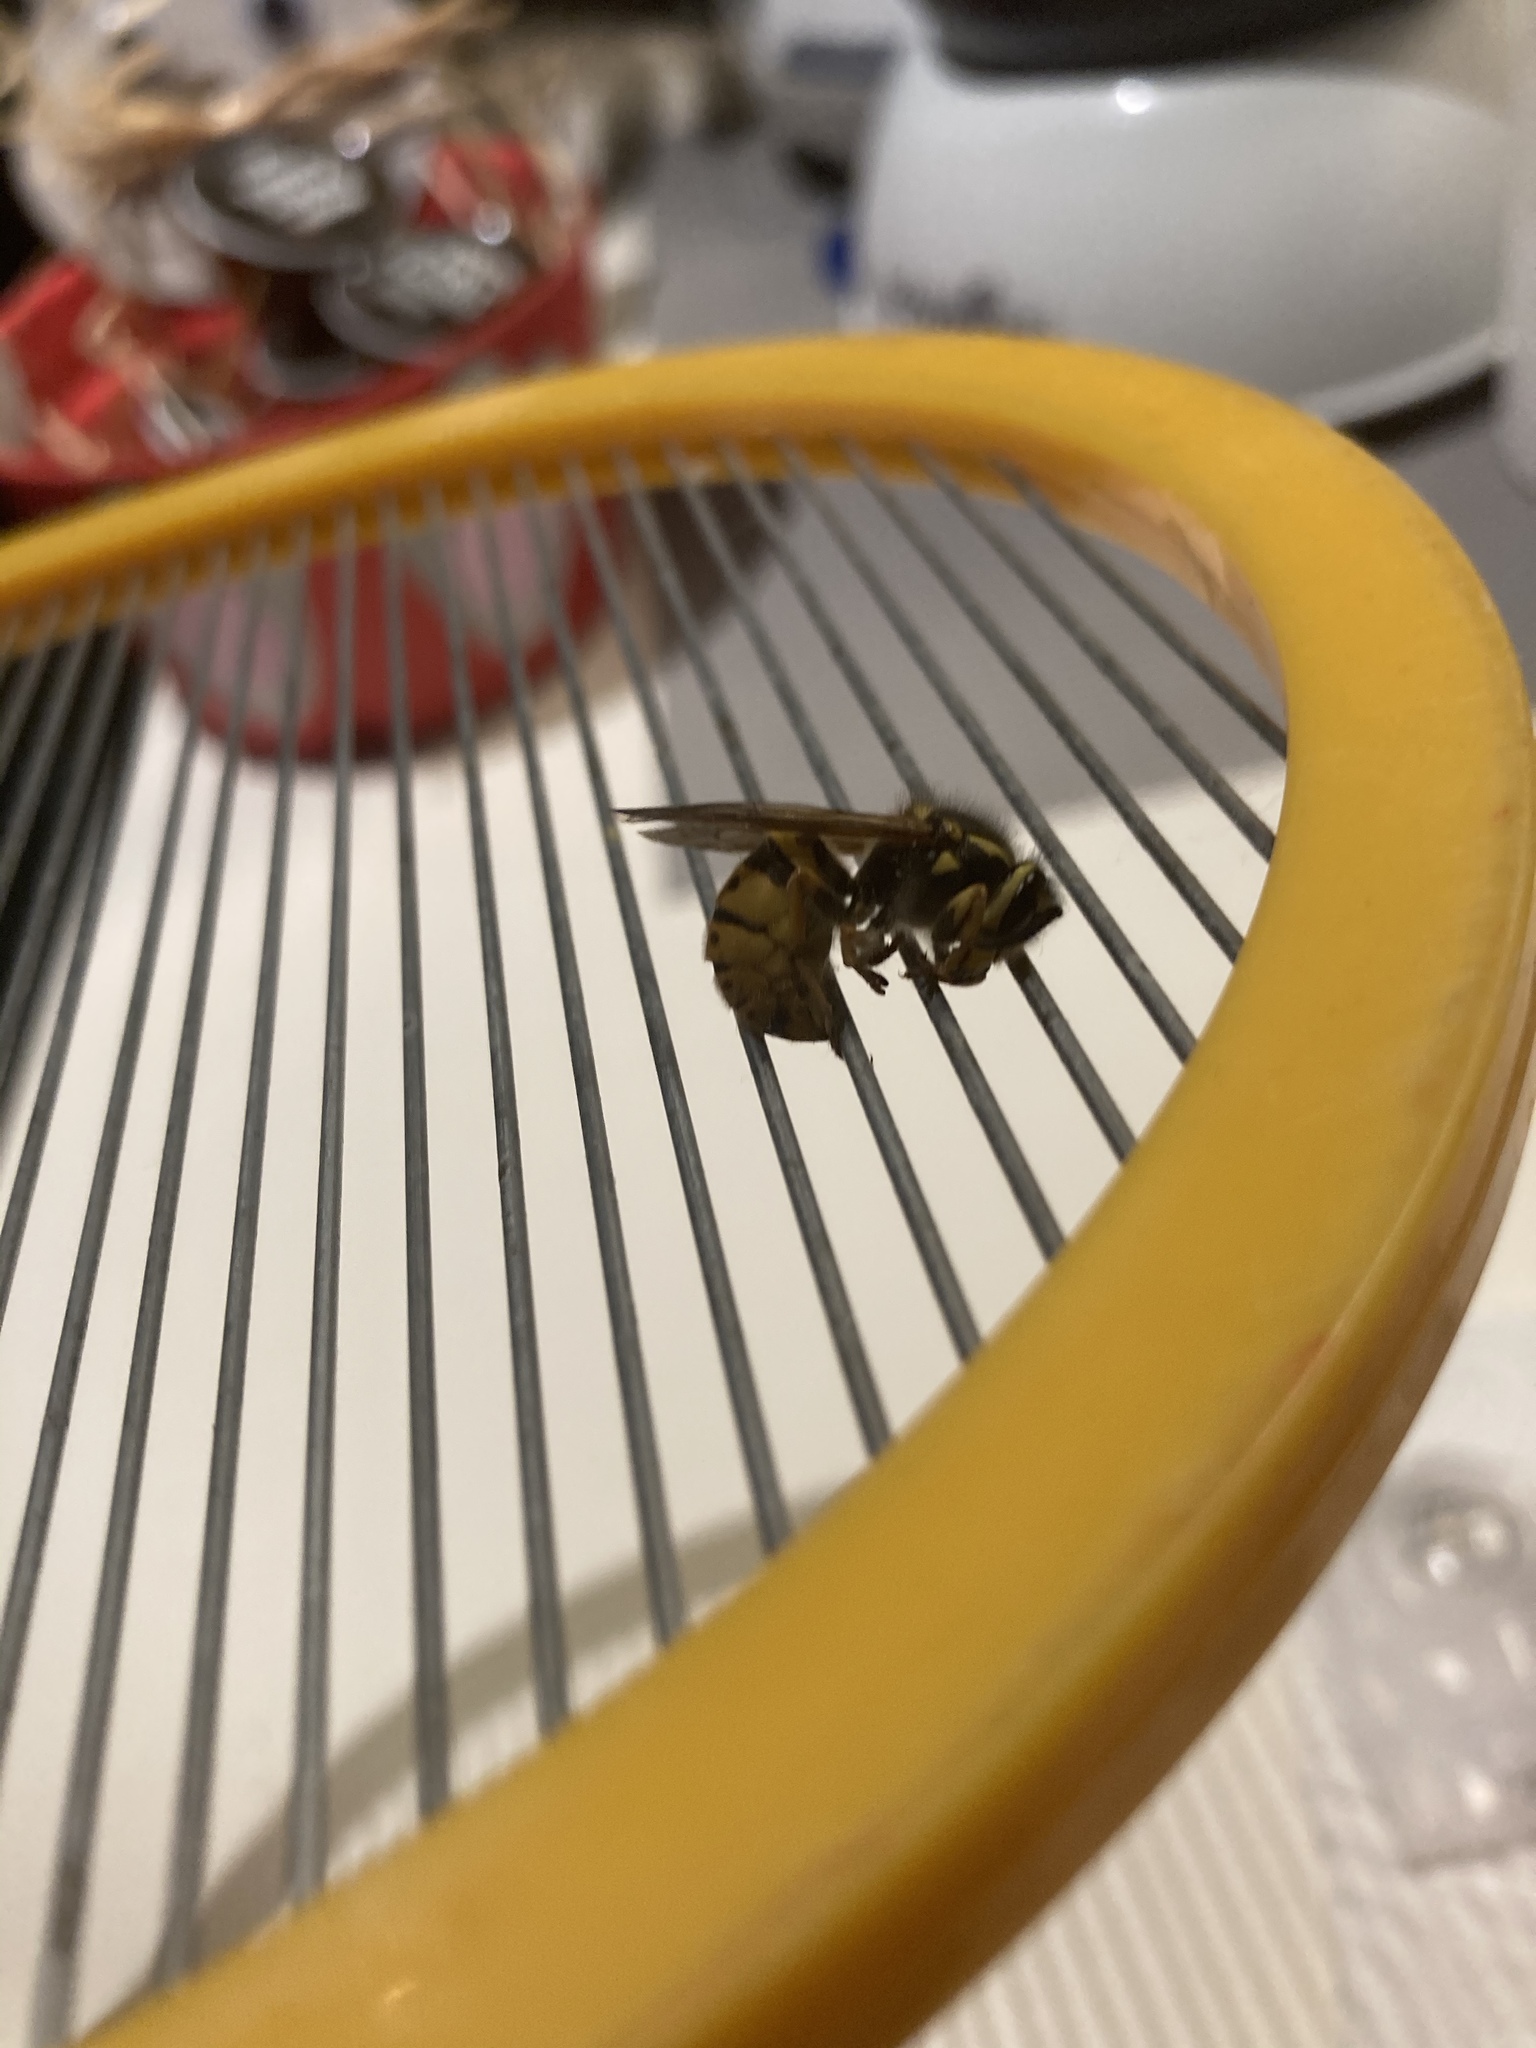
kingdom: Animalia
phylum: Arthropoda
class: Insecta
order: Hymenoptera
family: Vespidae
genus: Vespula
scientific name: Vespula germanica
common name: German wasp
